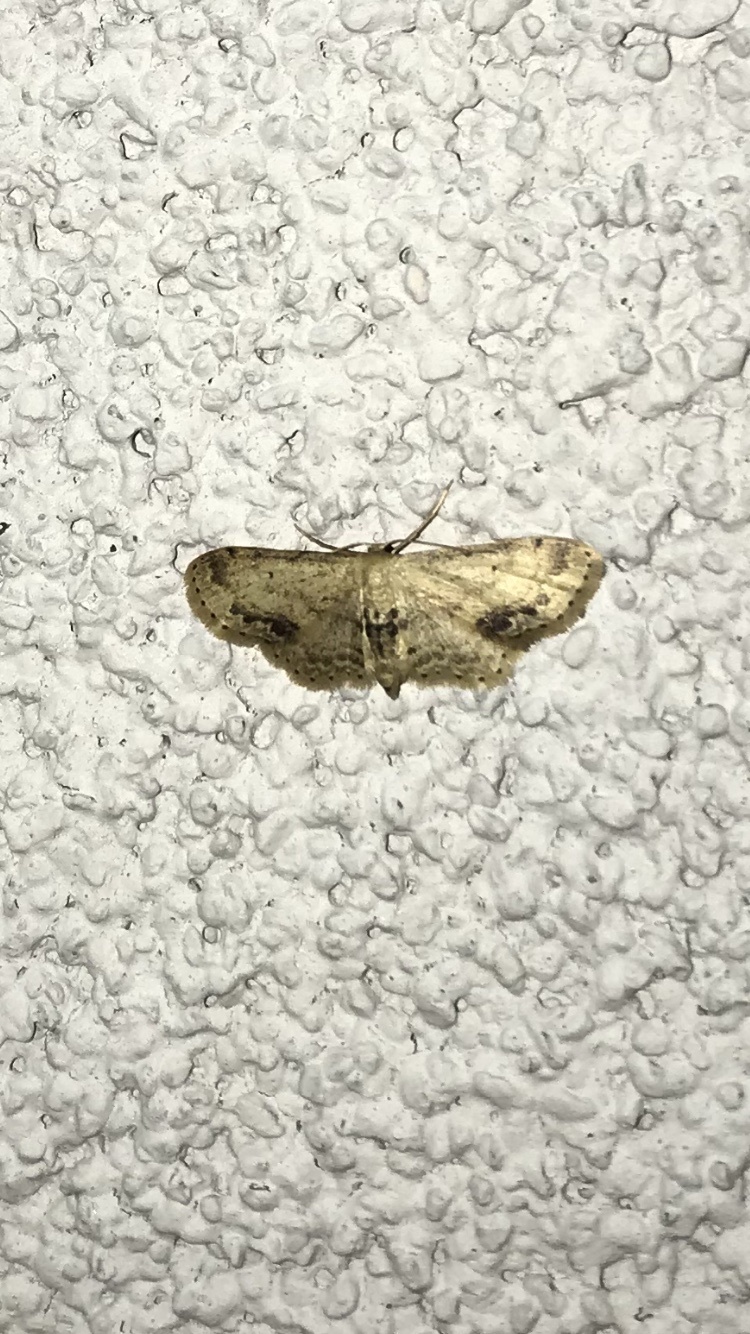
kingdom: Animalia
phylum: Arthropoda
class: Insecta
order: Lepidoptera
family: Geometridae
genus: Idaea
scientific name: Idaea dimidiata
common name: Single-dotted wave
